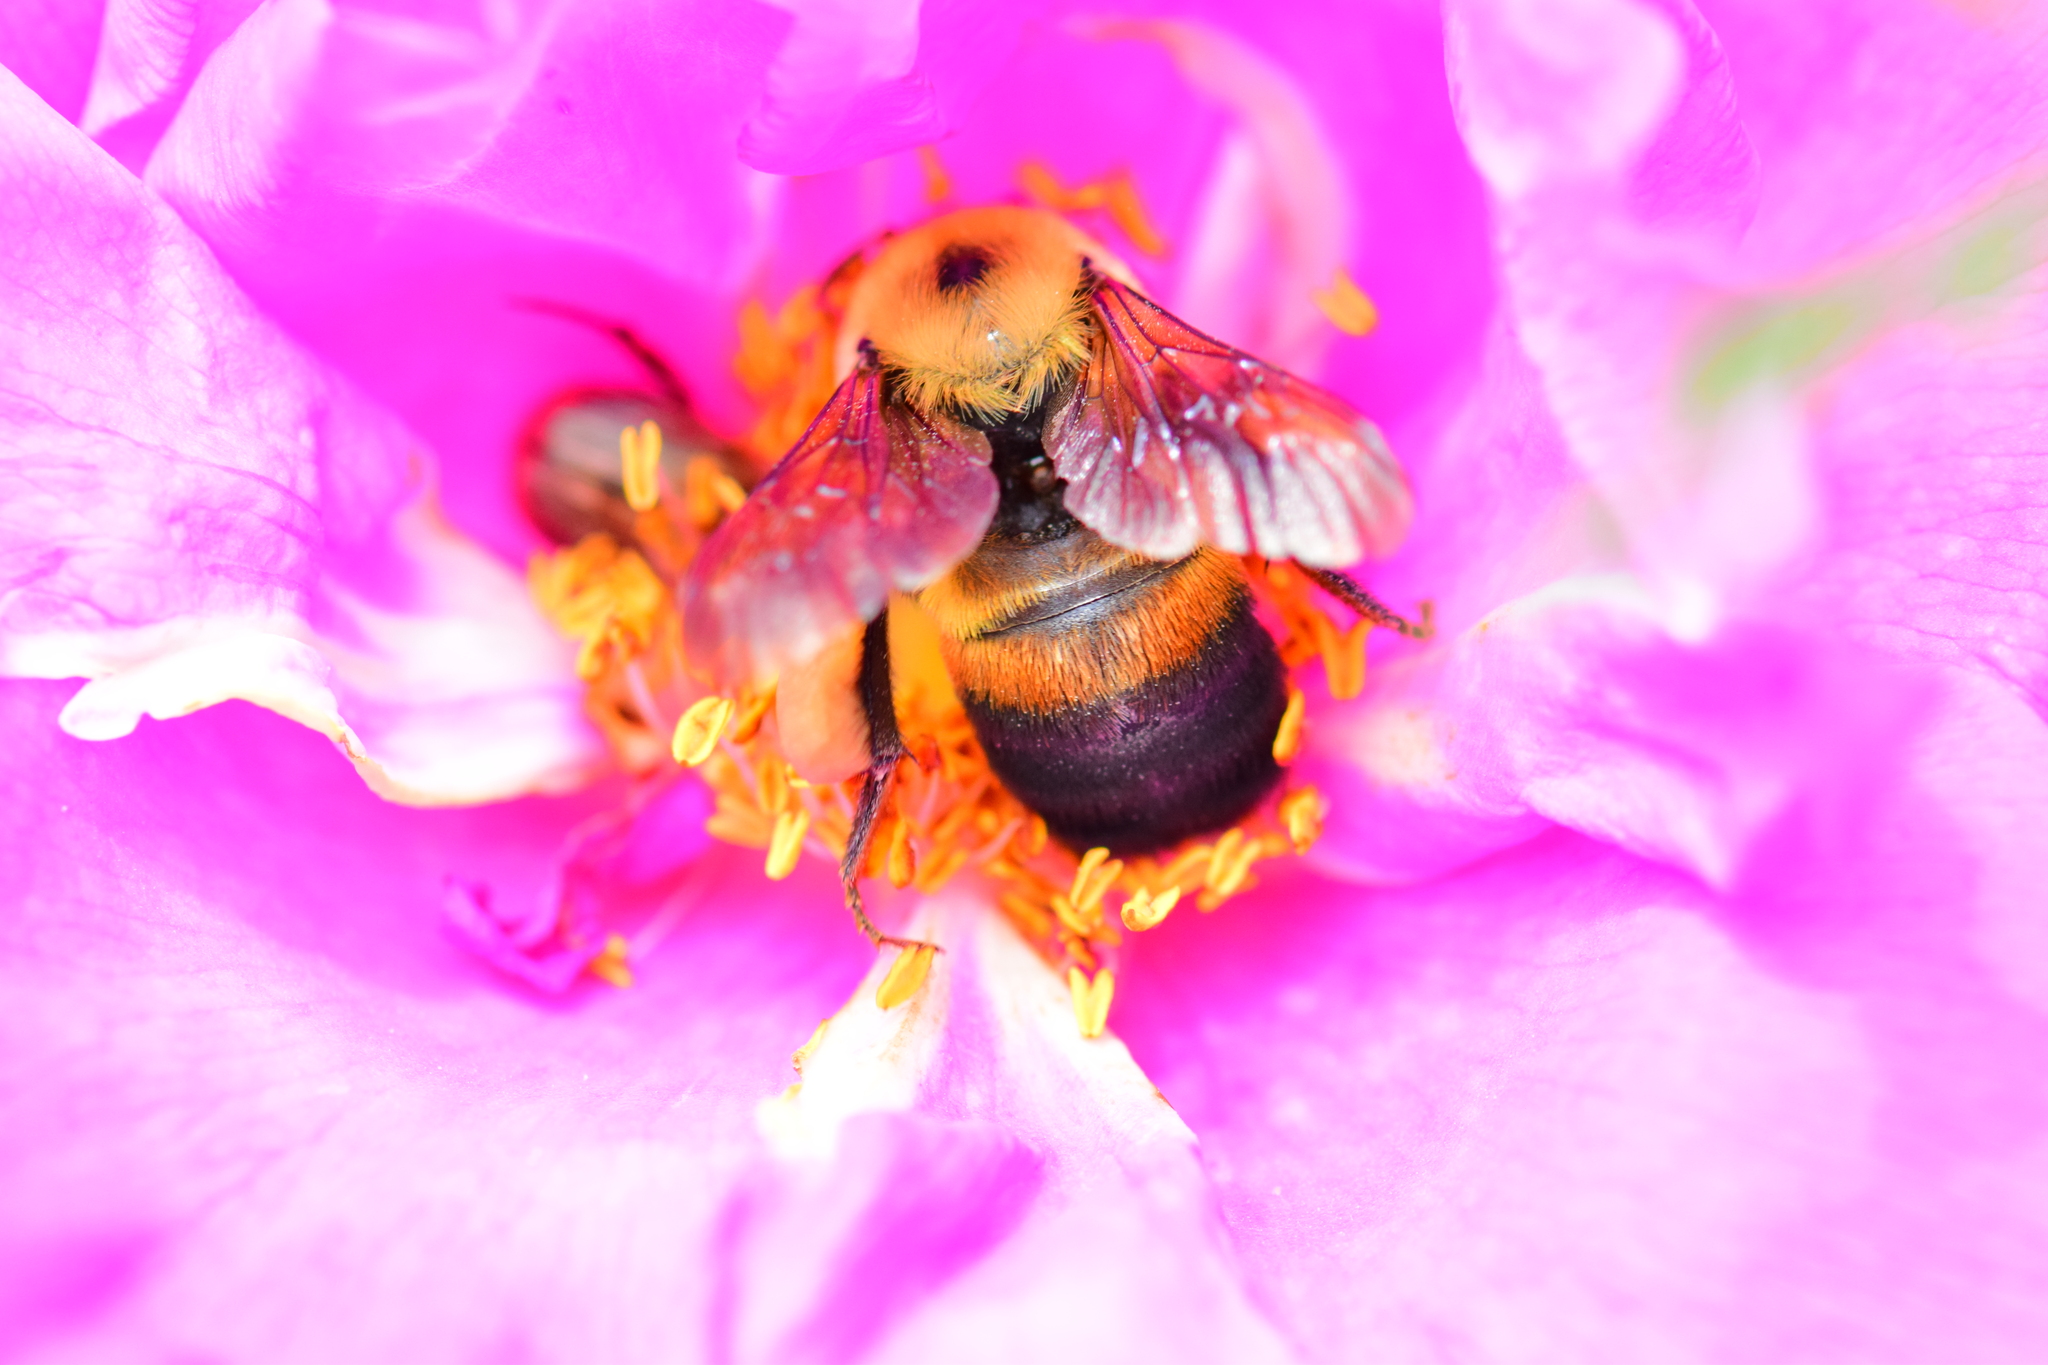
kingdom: Animalia
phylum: Arthropoda
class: Insecta
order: Hymenoptera
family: Apidae
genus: Bombus
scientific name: Bombus griseocollis
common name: Brown-belted bumble bee
